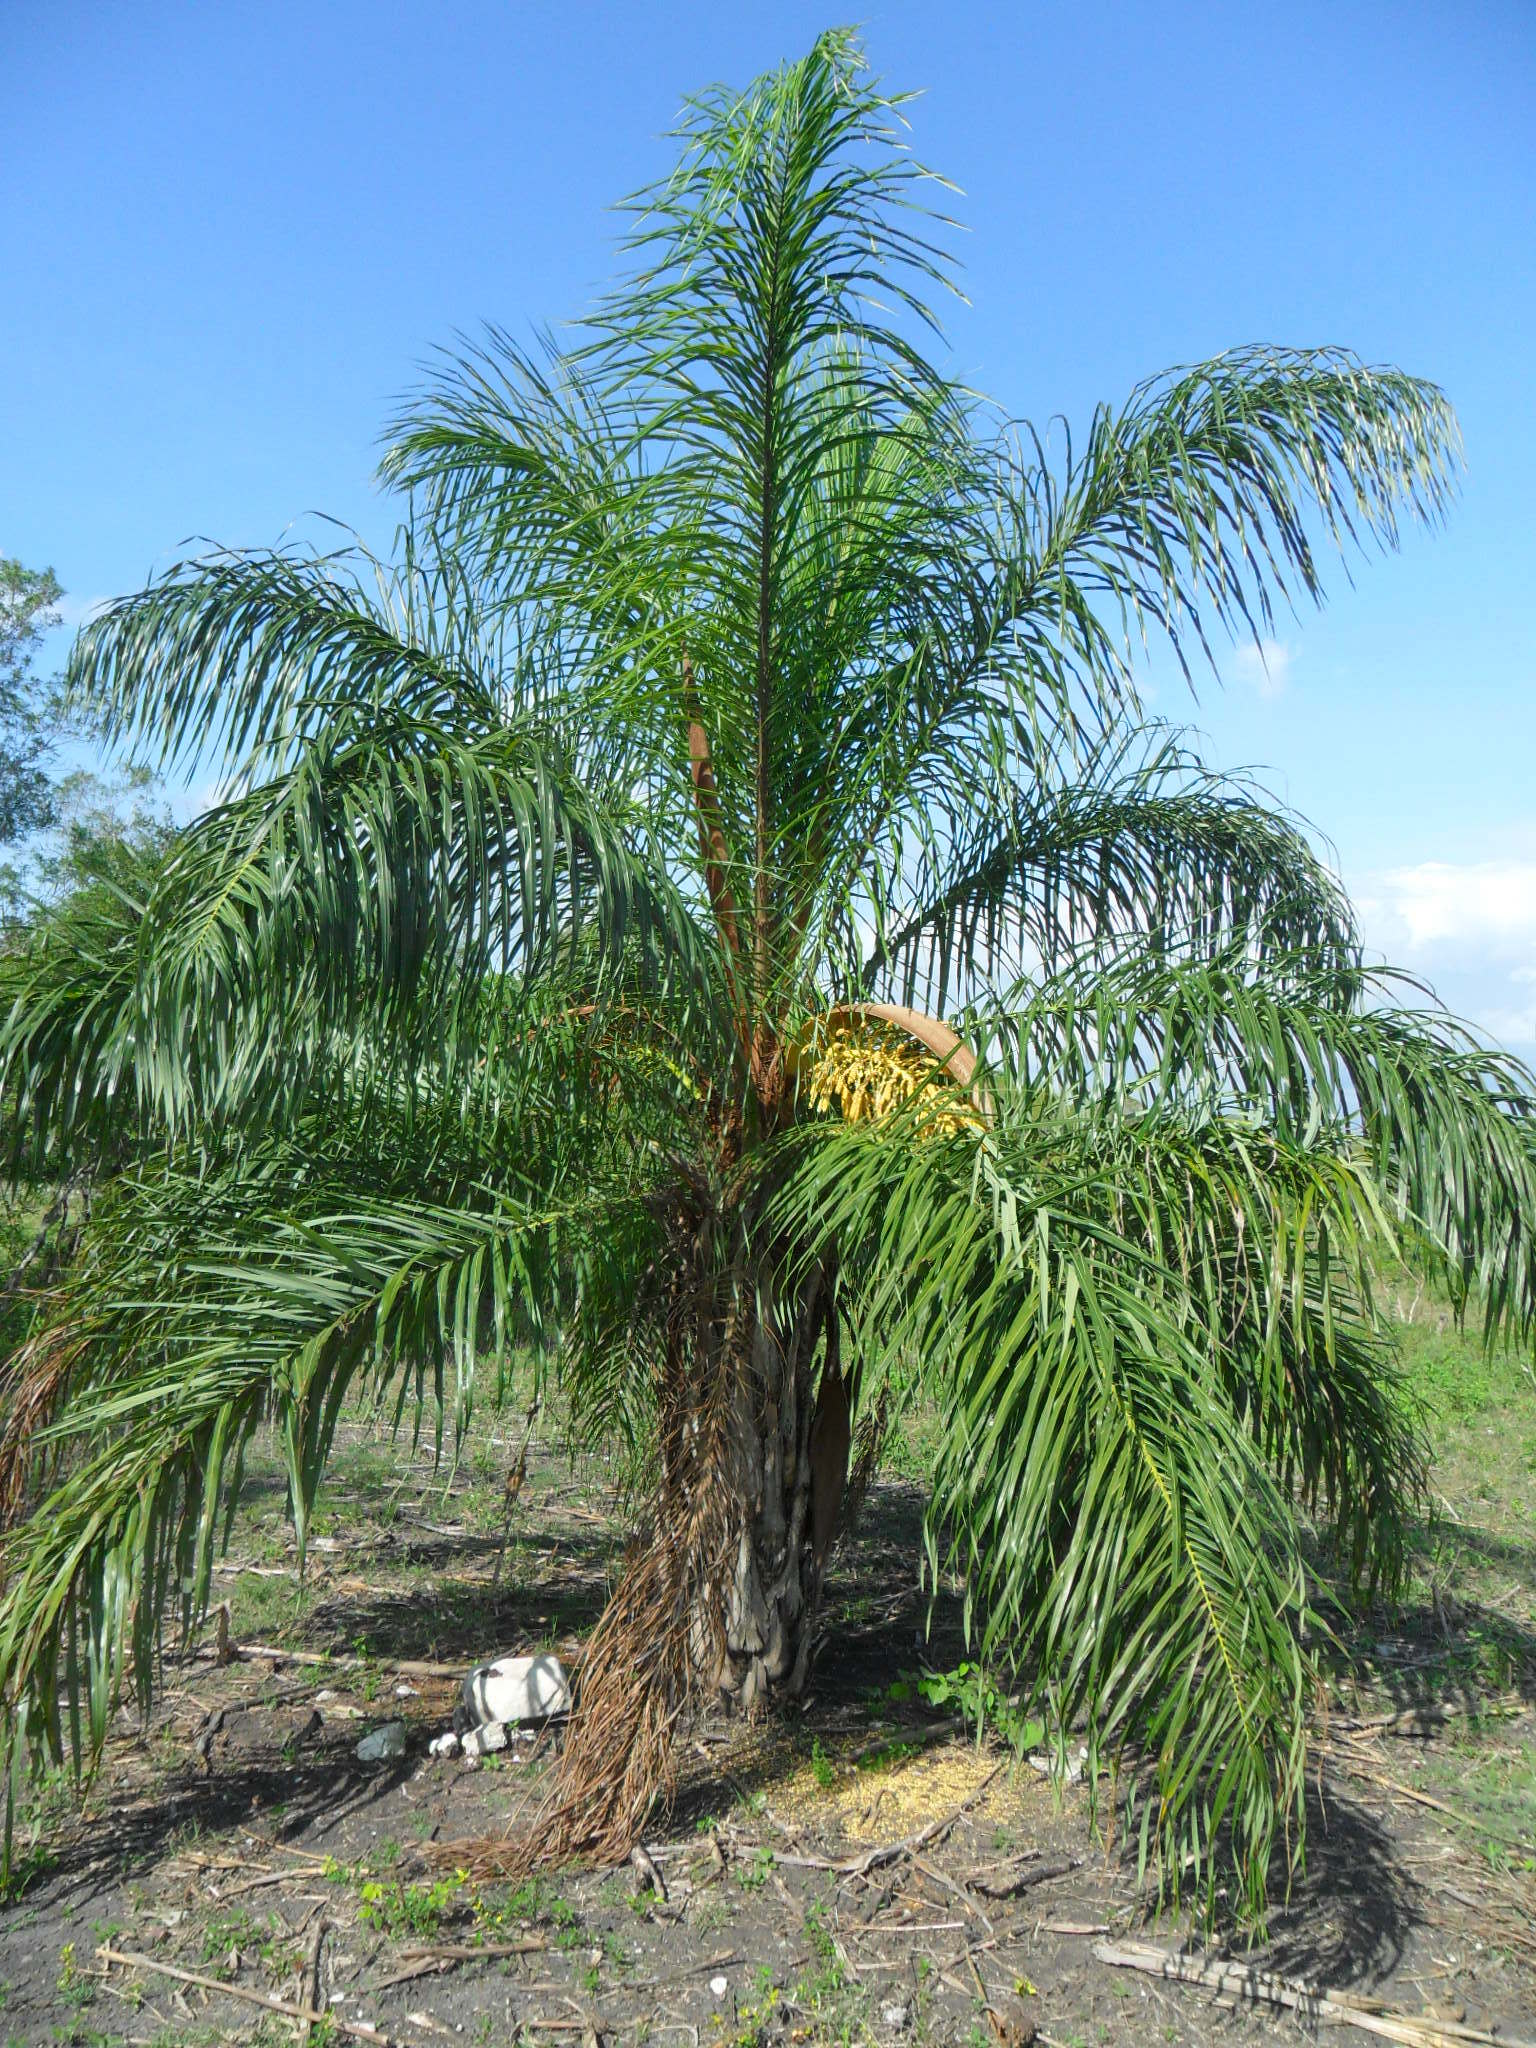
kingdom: Plantae
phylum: Tracheophyta
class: Liliopsida
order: Arecales
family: Arecaceae
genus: Acrocomia
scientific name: Acrocomia aculeata
